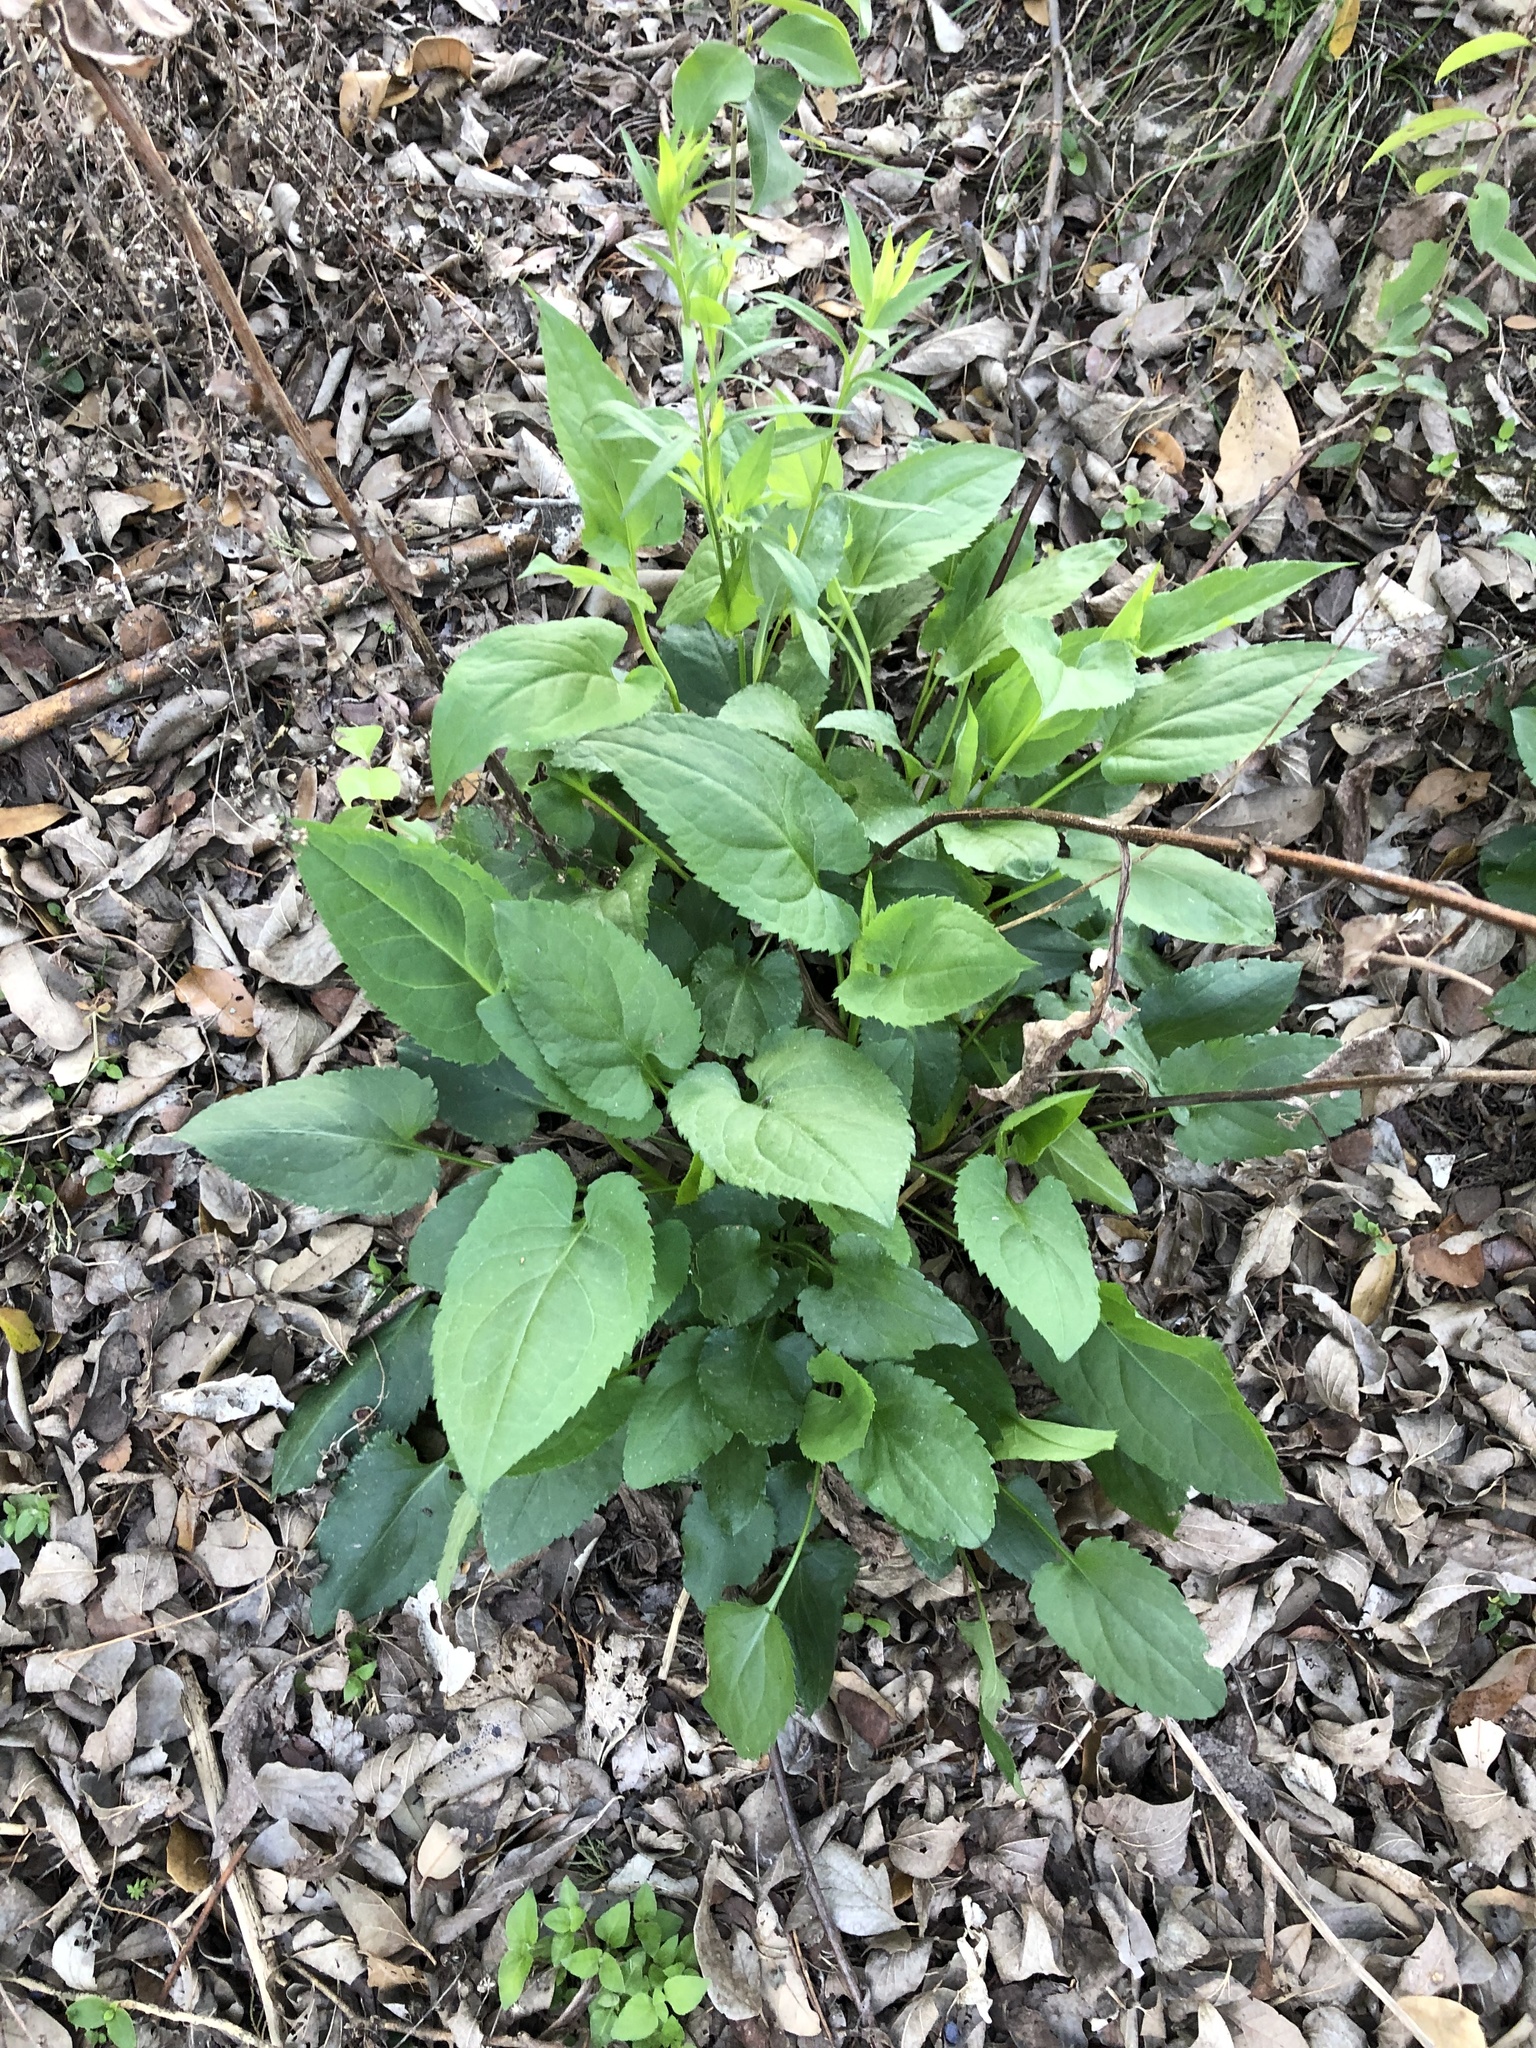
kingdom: Plantae
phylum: Tracheophyta
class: Magnoliopsida
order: Asterales
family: Asteraceae
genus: Symphyotrichum
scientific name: Symphyotrichum drummondii
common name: Drummond's aster
